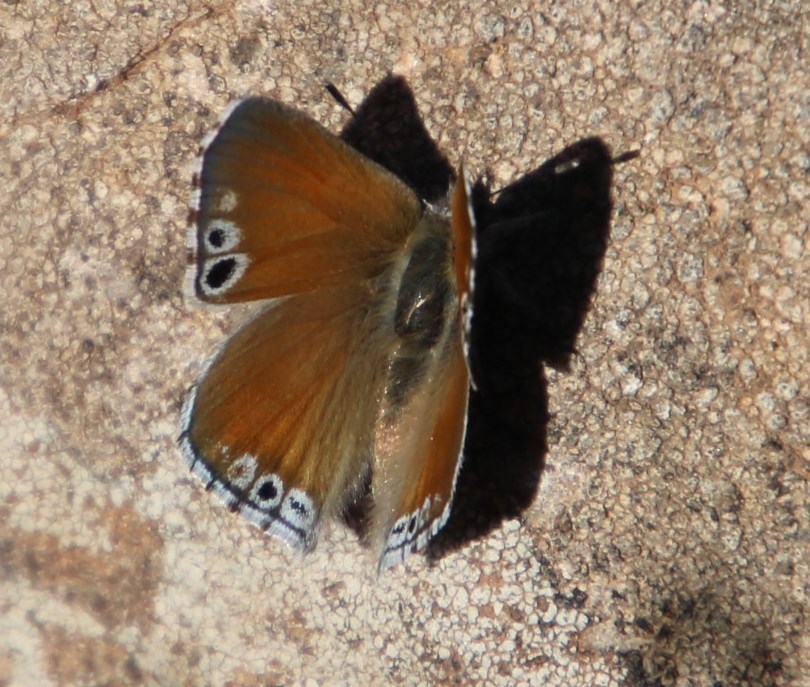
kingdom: Animalia
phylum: Arthropoda
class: Insecta
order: Lepidoptera
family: Lycaenidae
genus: Leptomyrina
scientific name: Leptomyrina lara
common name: Cape black-eye
